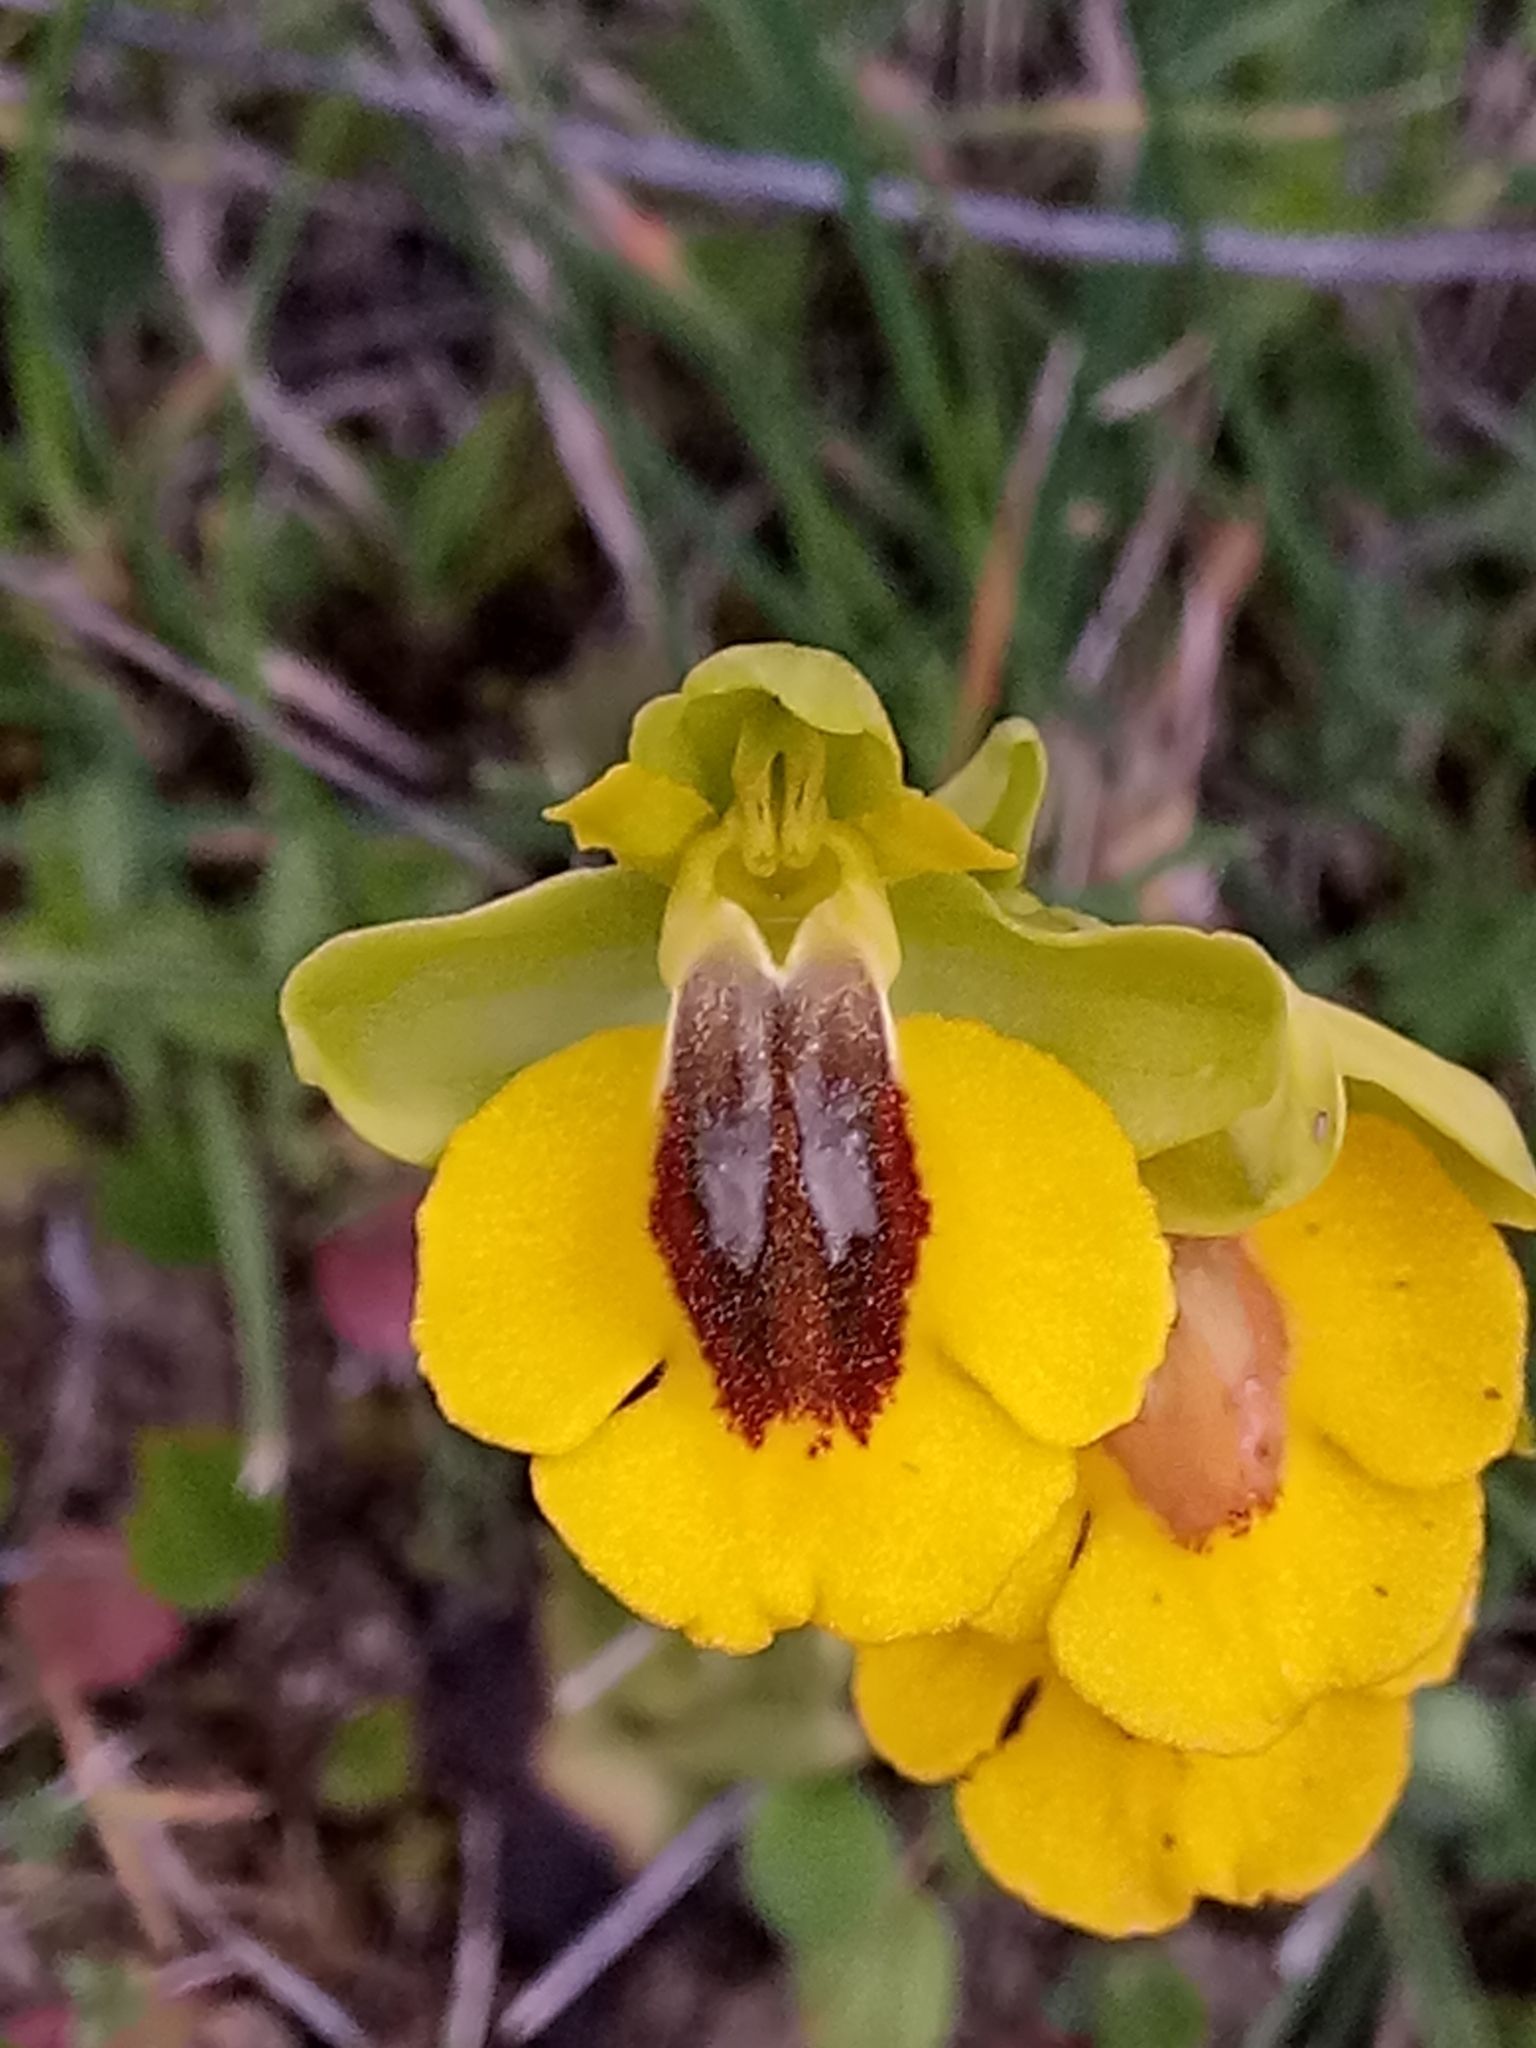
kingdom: Plantae
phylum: Tracheophyta
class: Liliopsida
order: Asparagales
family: Orchidaceae
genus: Ophrys
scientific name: Ophrys lutea
